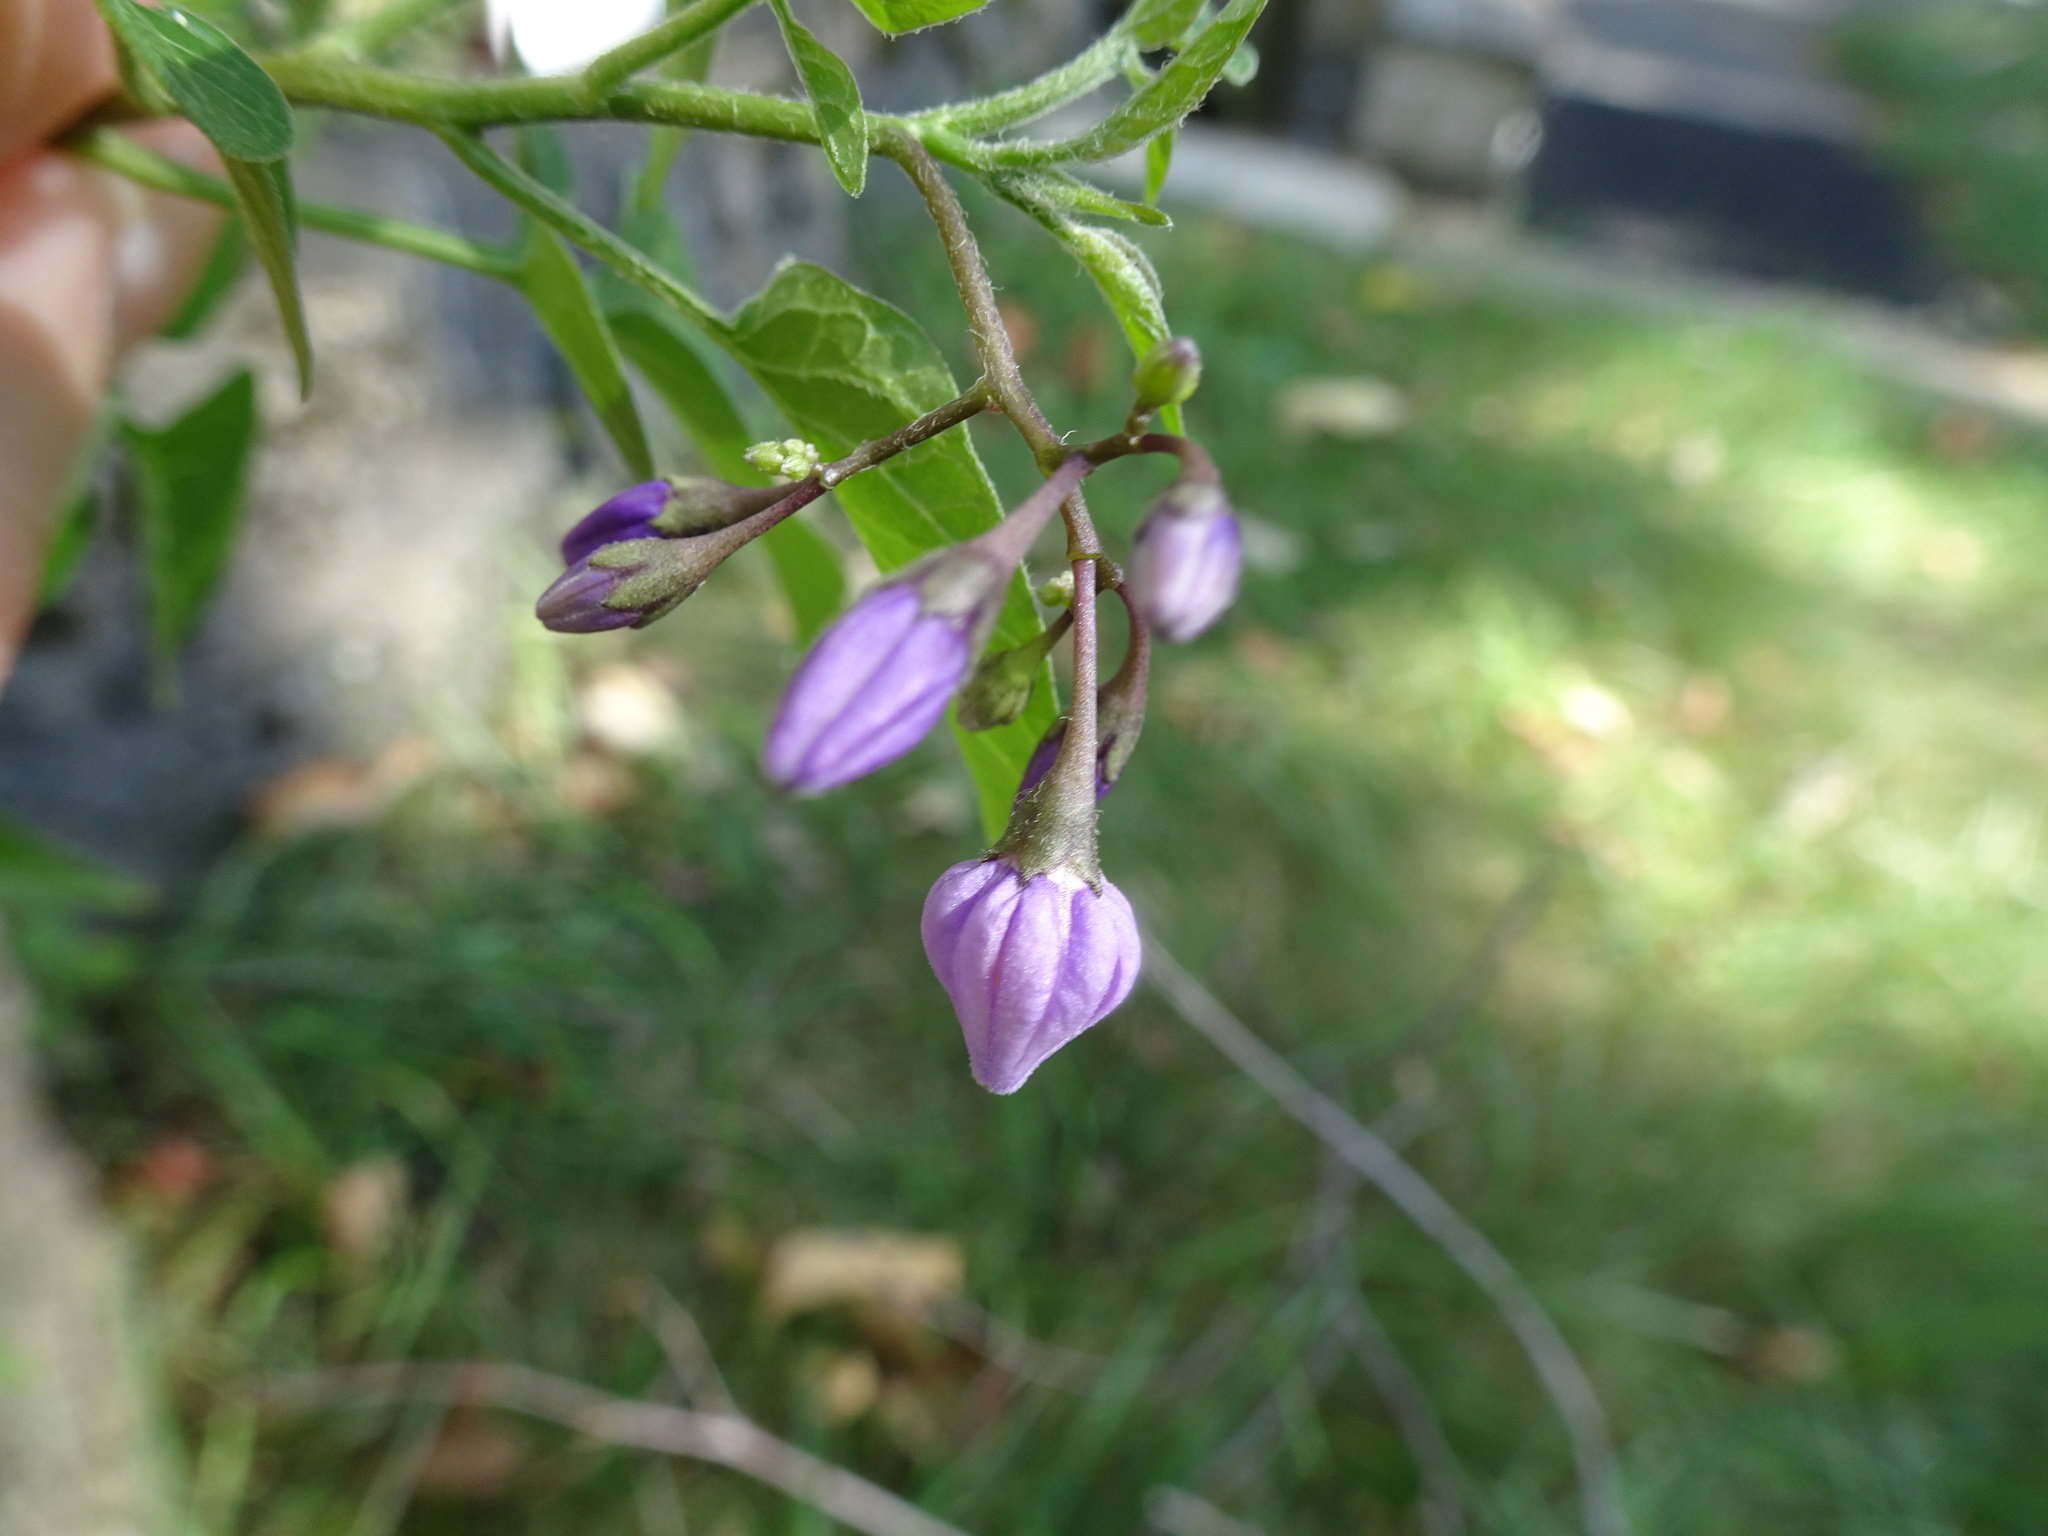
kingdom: Plantae
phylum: Tracheophyta
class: Magnoliopsida
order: Solanales
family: Solanaceae
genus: Solanum
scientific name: Solanum dulcamara
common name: Climbing nightshade
